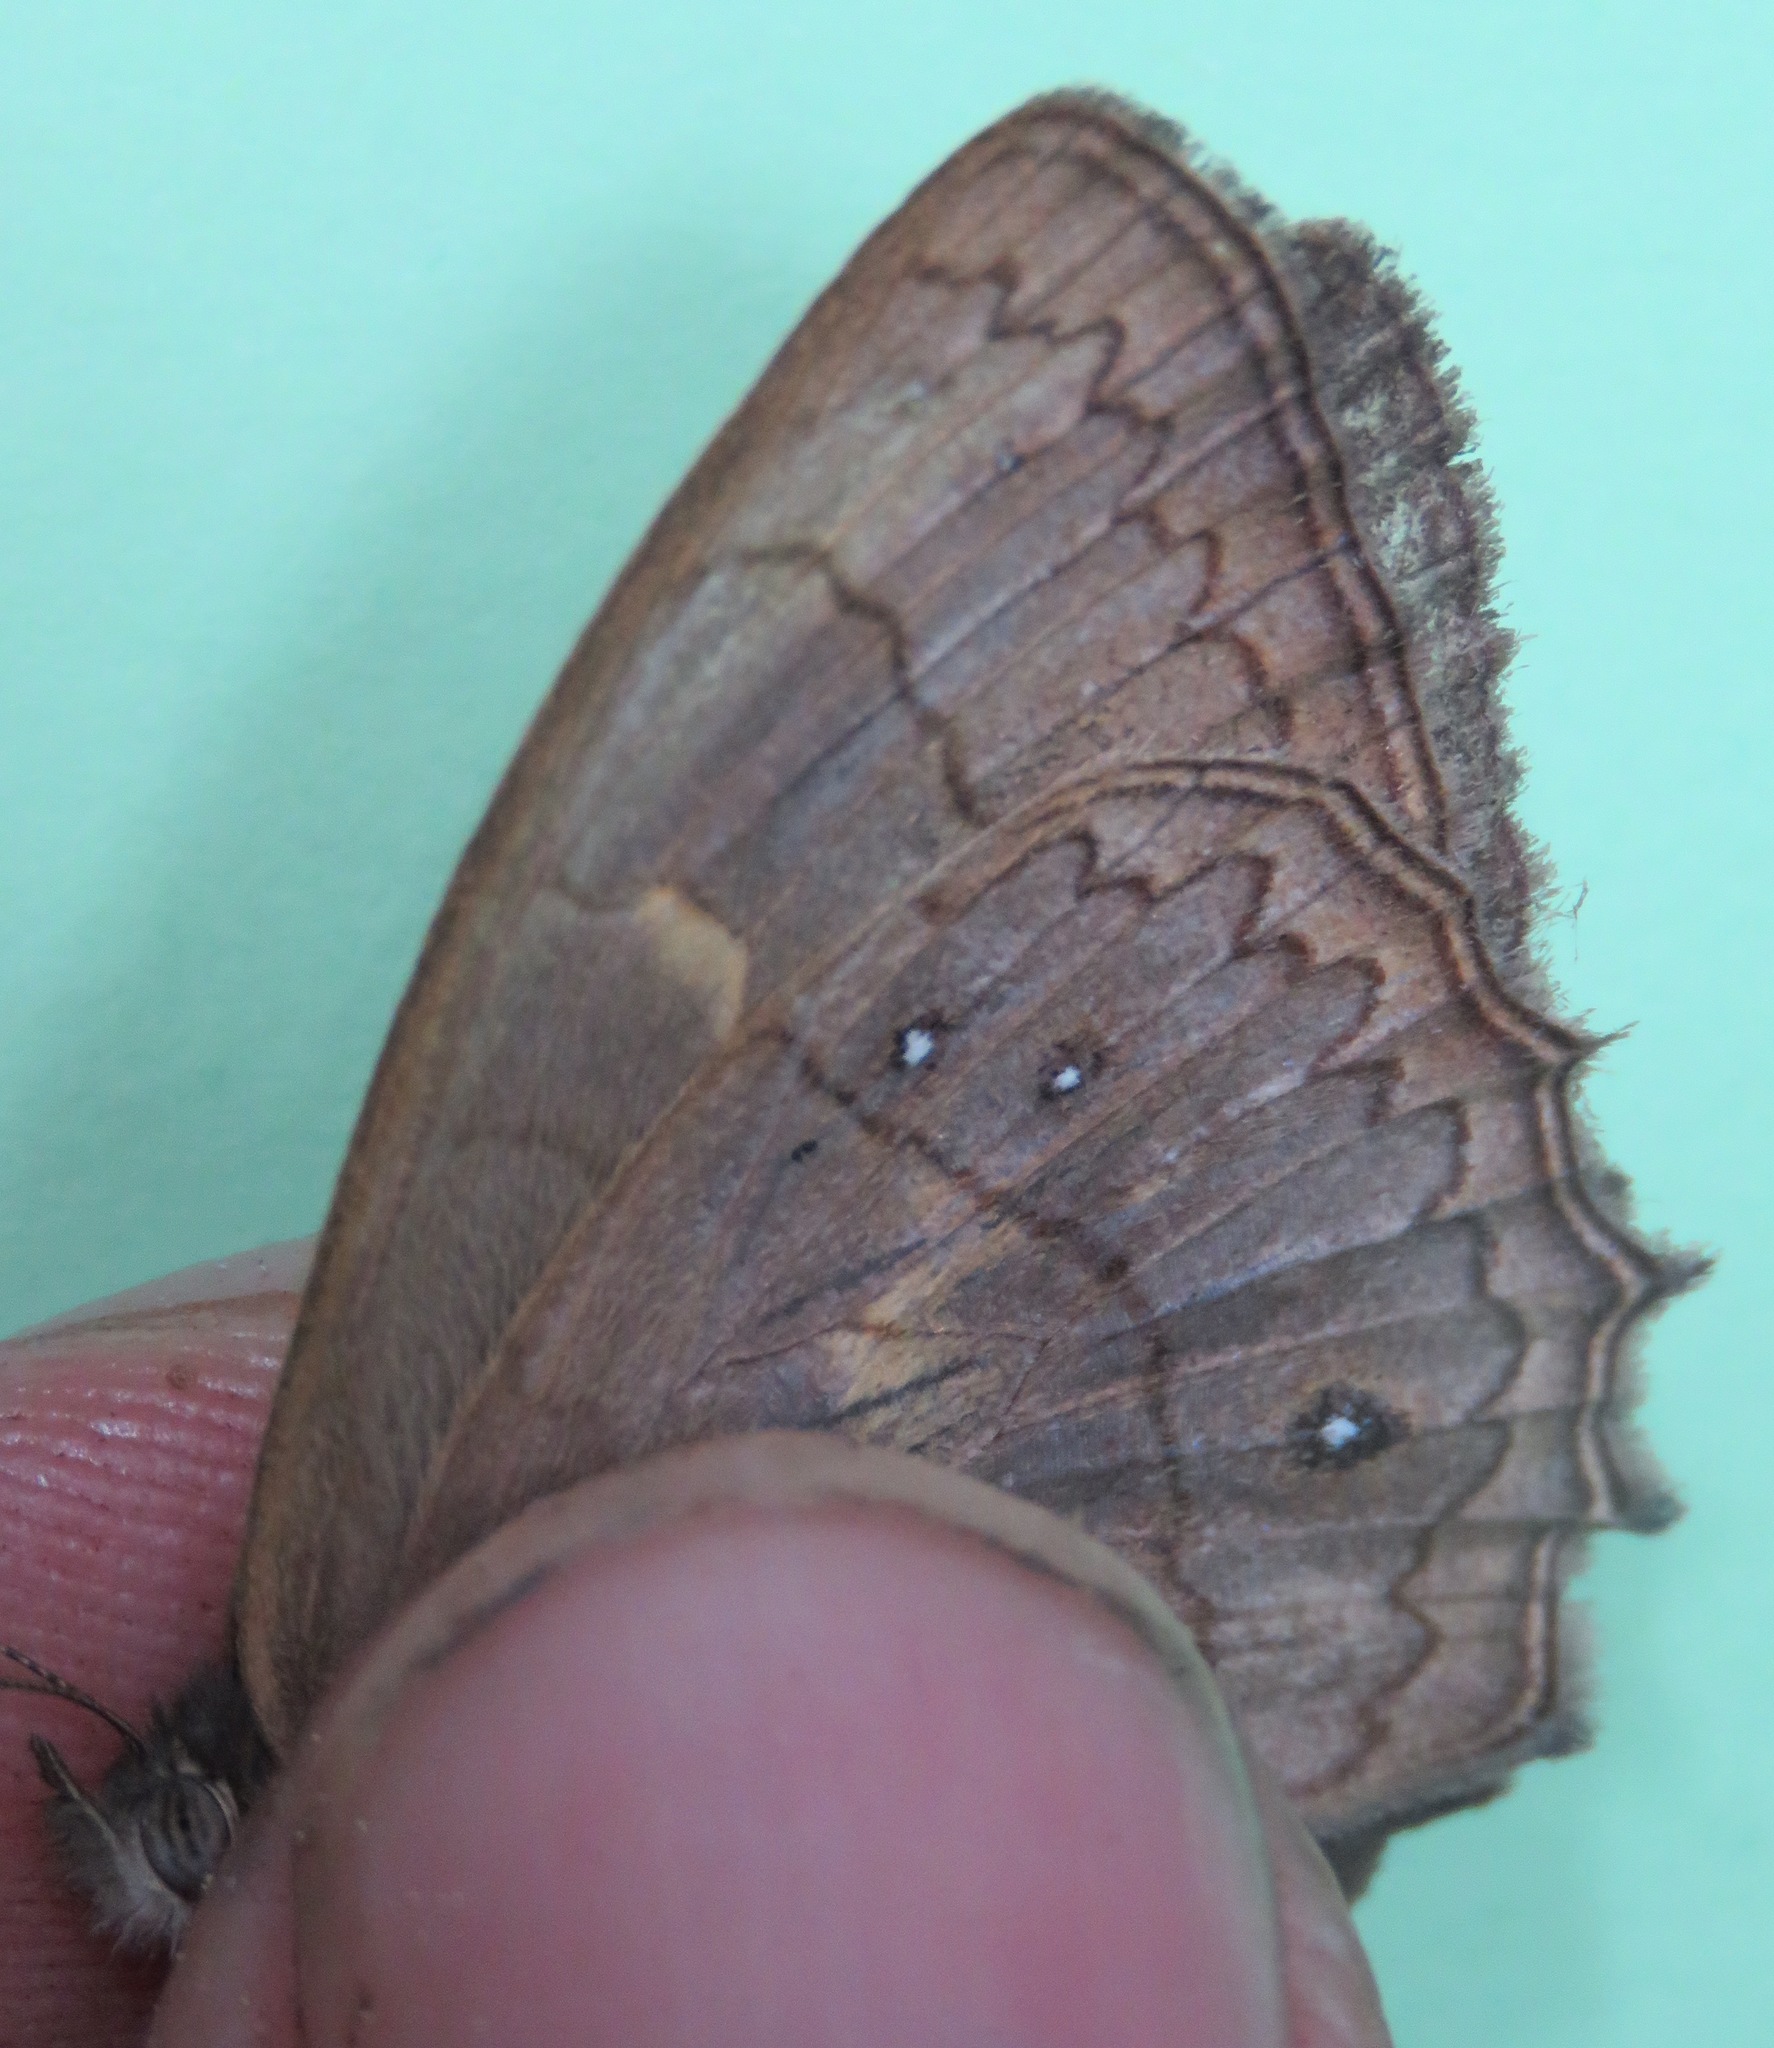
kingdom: Animalia
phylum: Arthropoda
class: Insecta
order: Lepidoptera
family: Nymphalidae
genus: Taygetina
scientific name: Taygetina kerea
